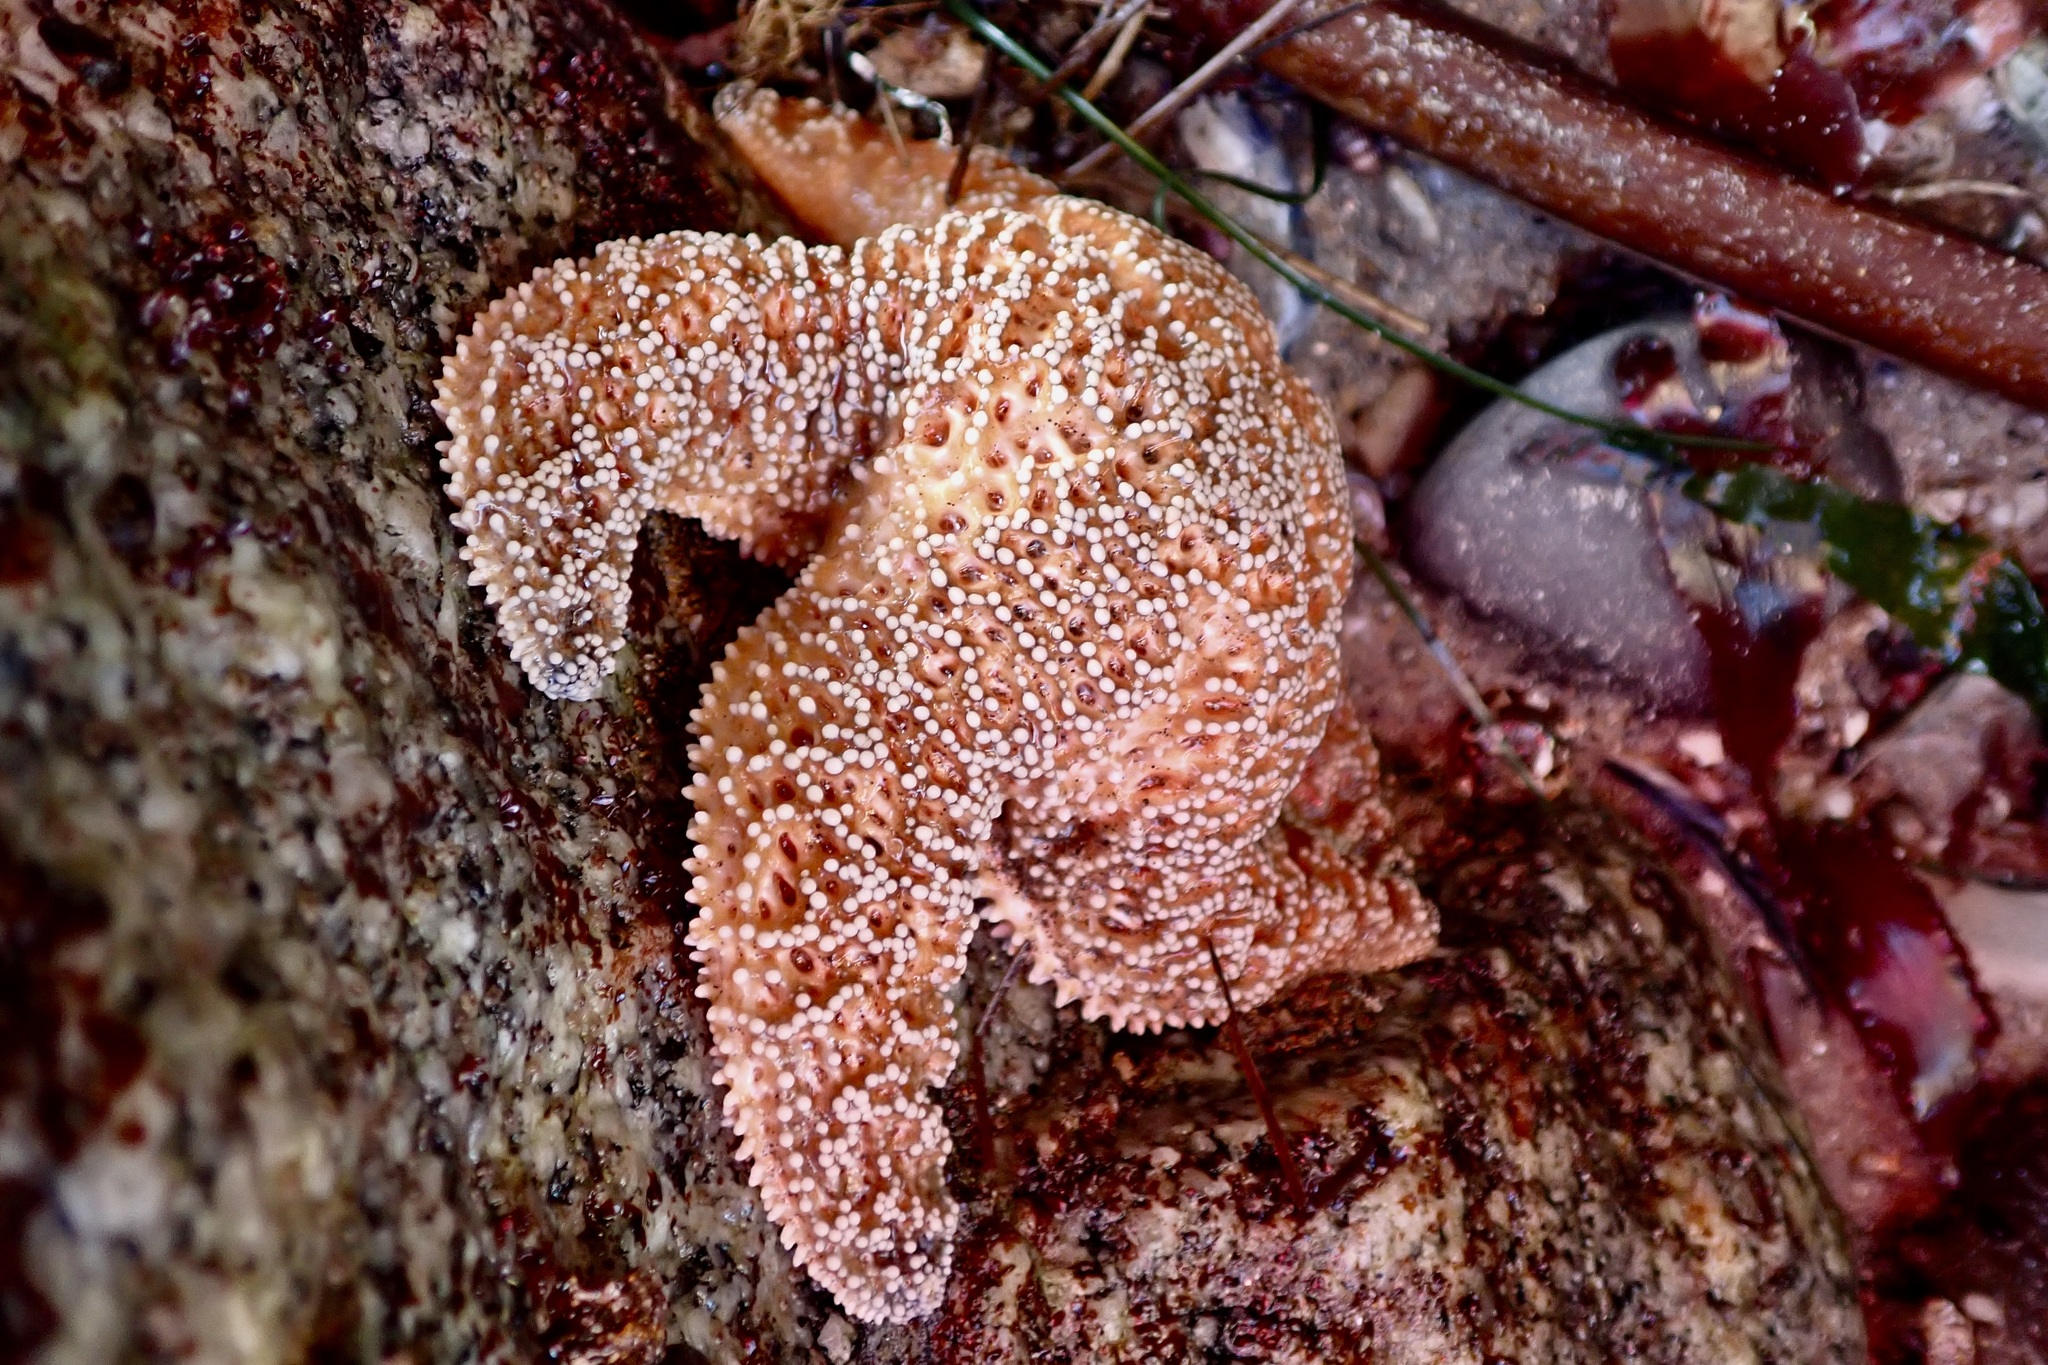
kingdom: Animalia
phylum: Echinodermata
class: Asteroidea
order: Forcipulatida
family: Asteriidae
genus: Pisaster
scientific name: Pisaster ochraceus
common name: Ochre stars
